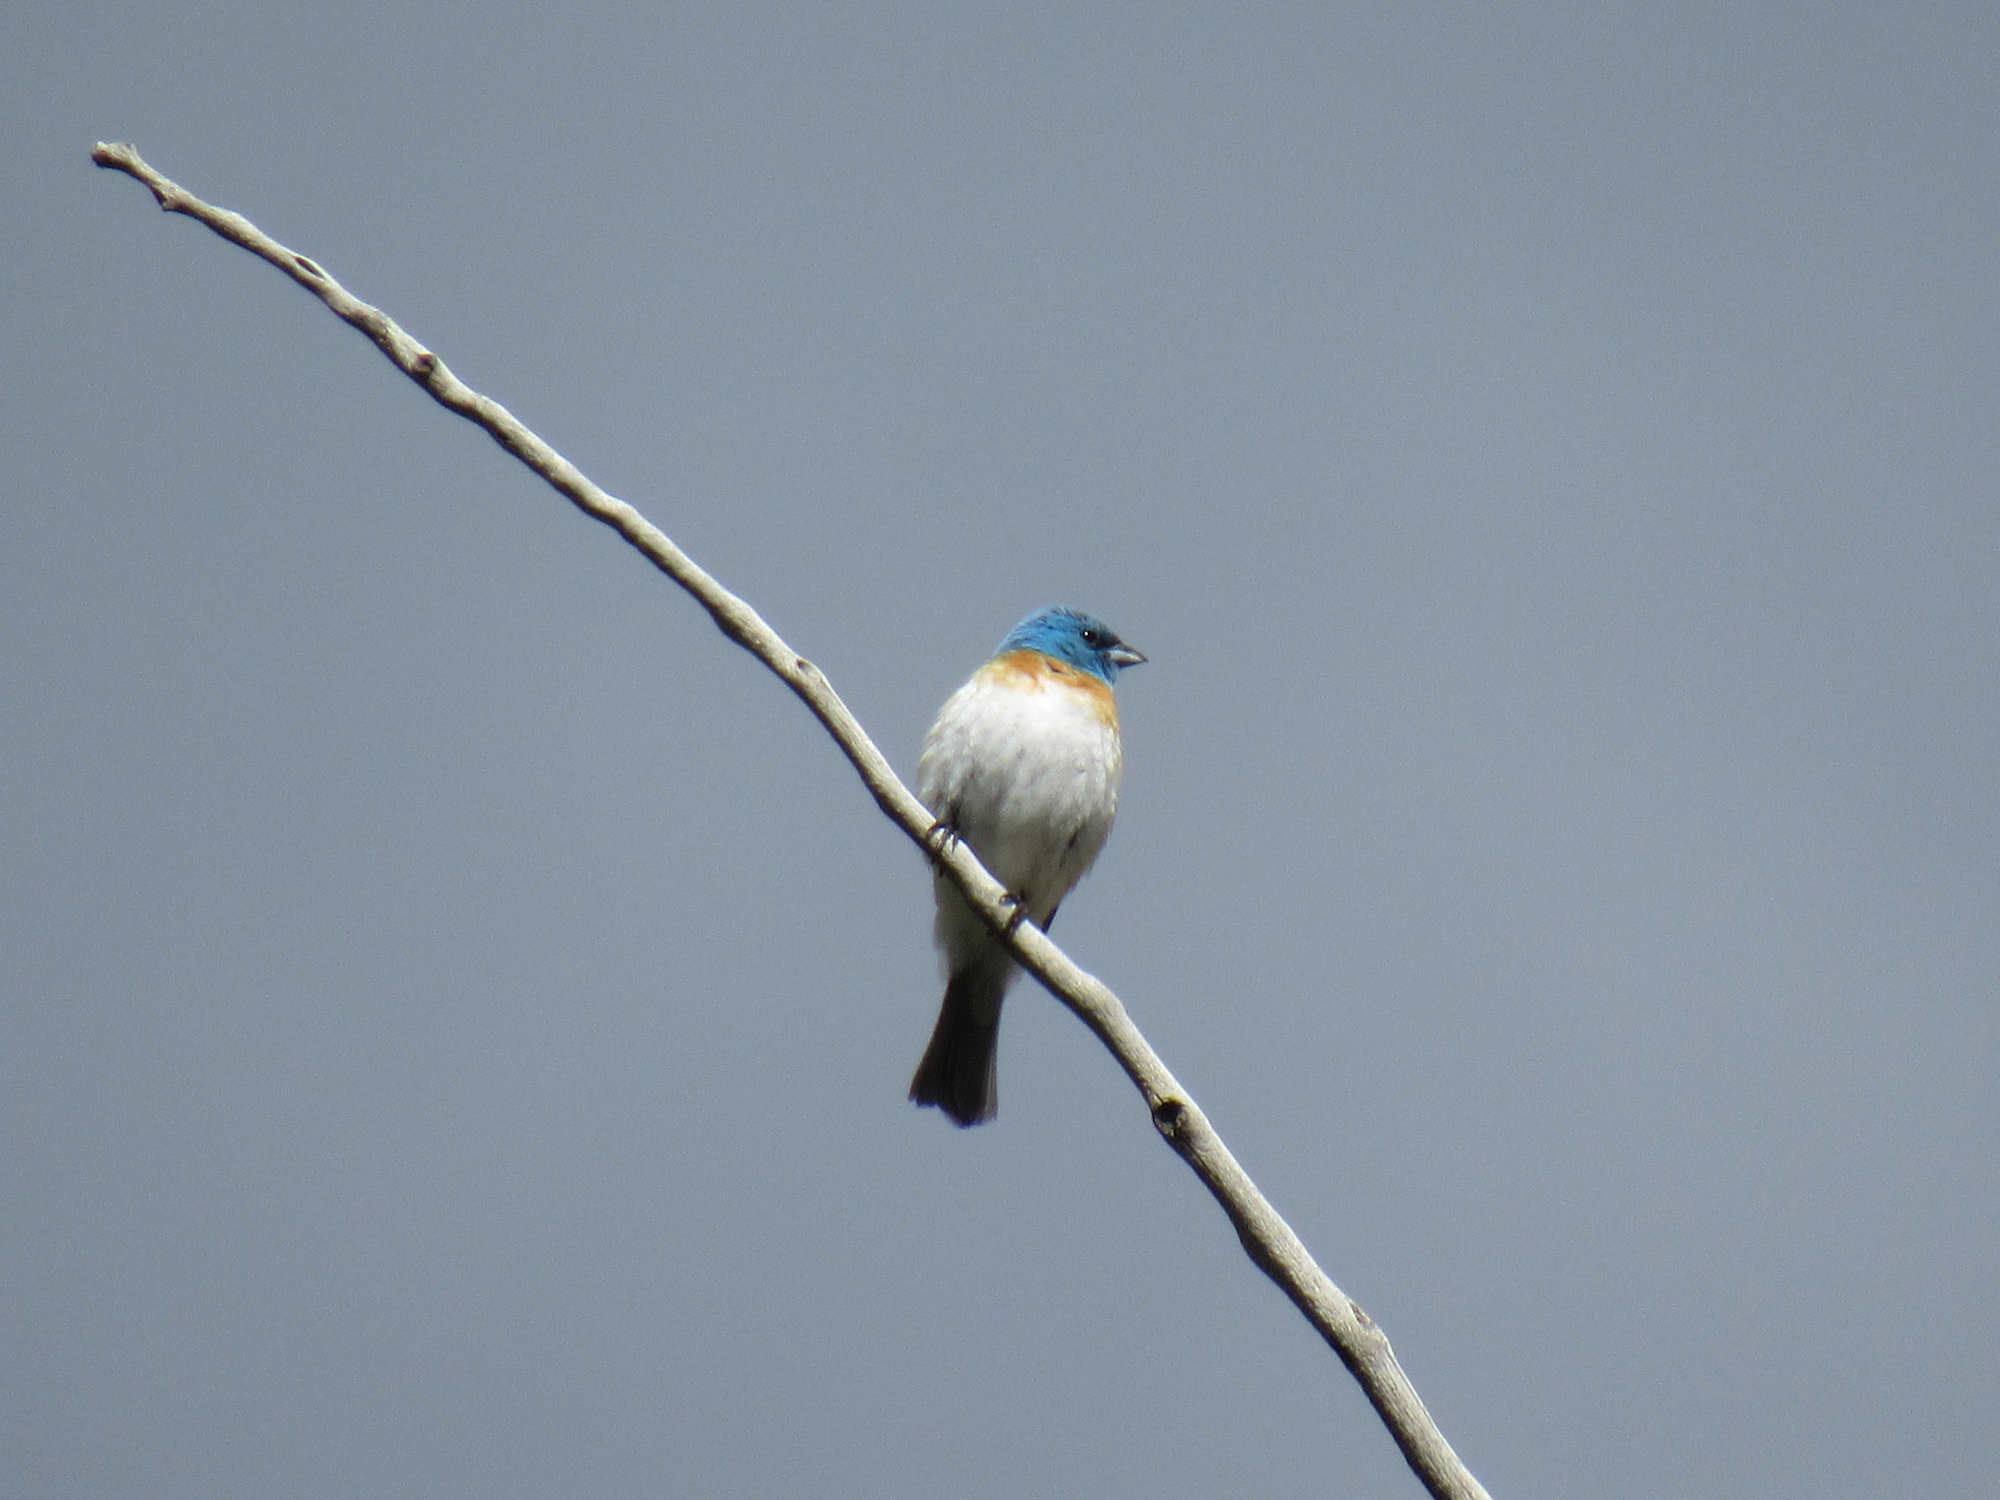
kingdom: Animalia
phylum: Chordata
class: Aves
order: Passeriformes
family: Cardinalidae
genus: Passerina
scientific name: Passerina amoena
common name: Lazuli bunting
